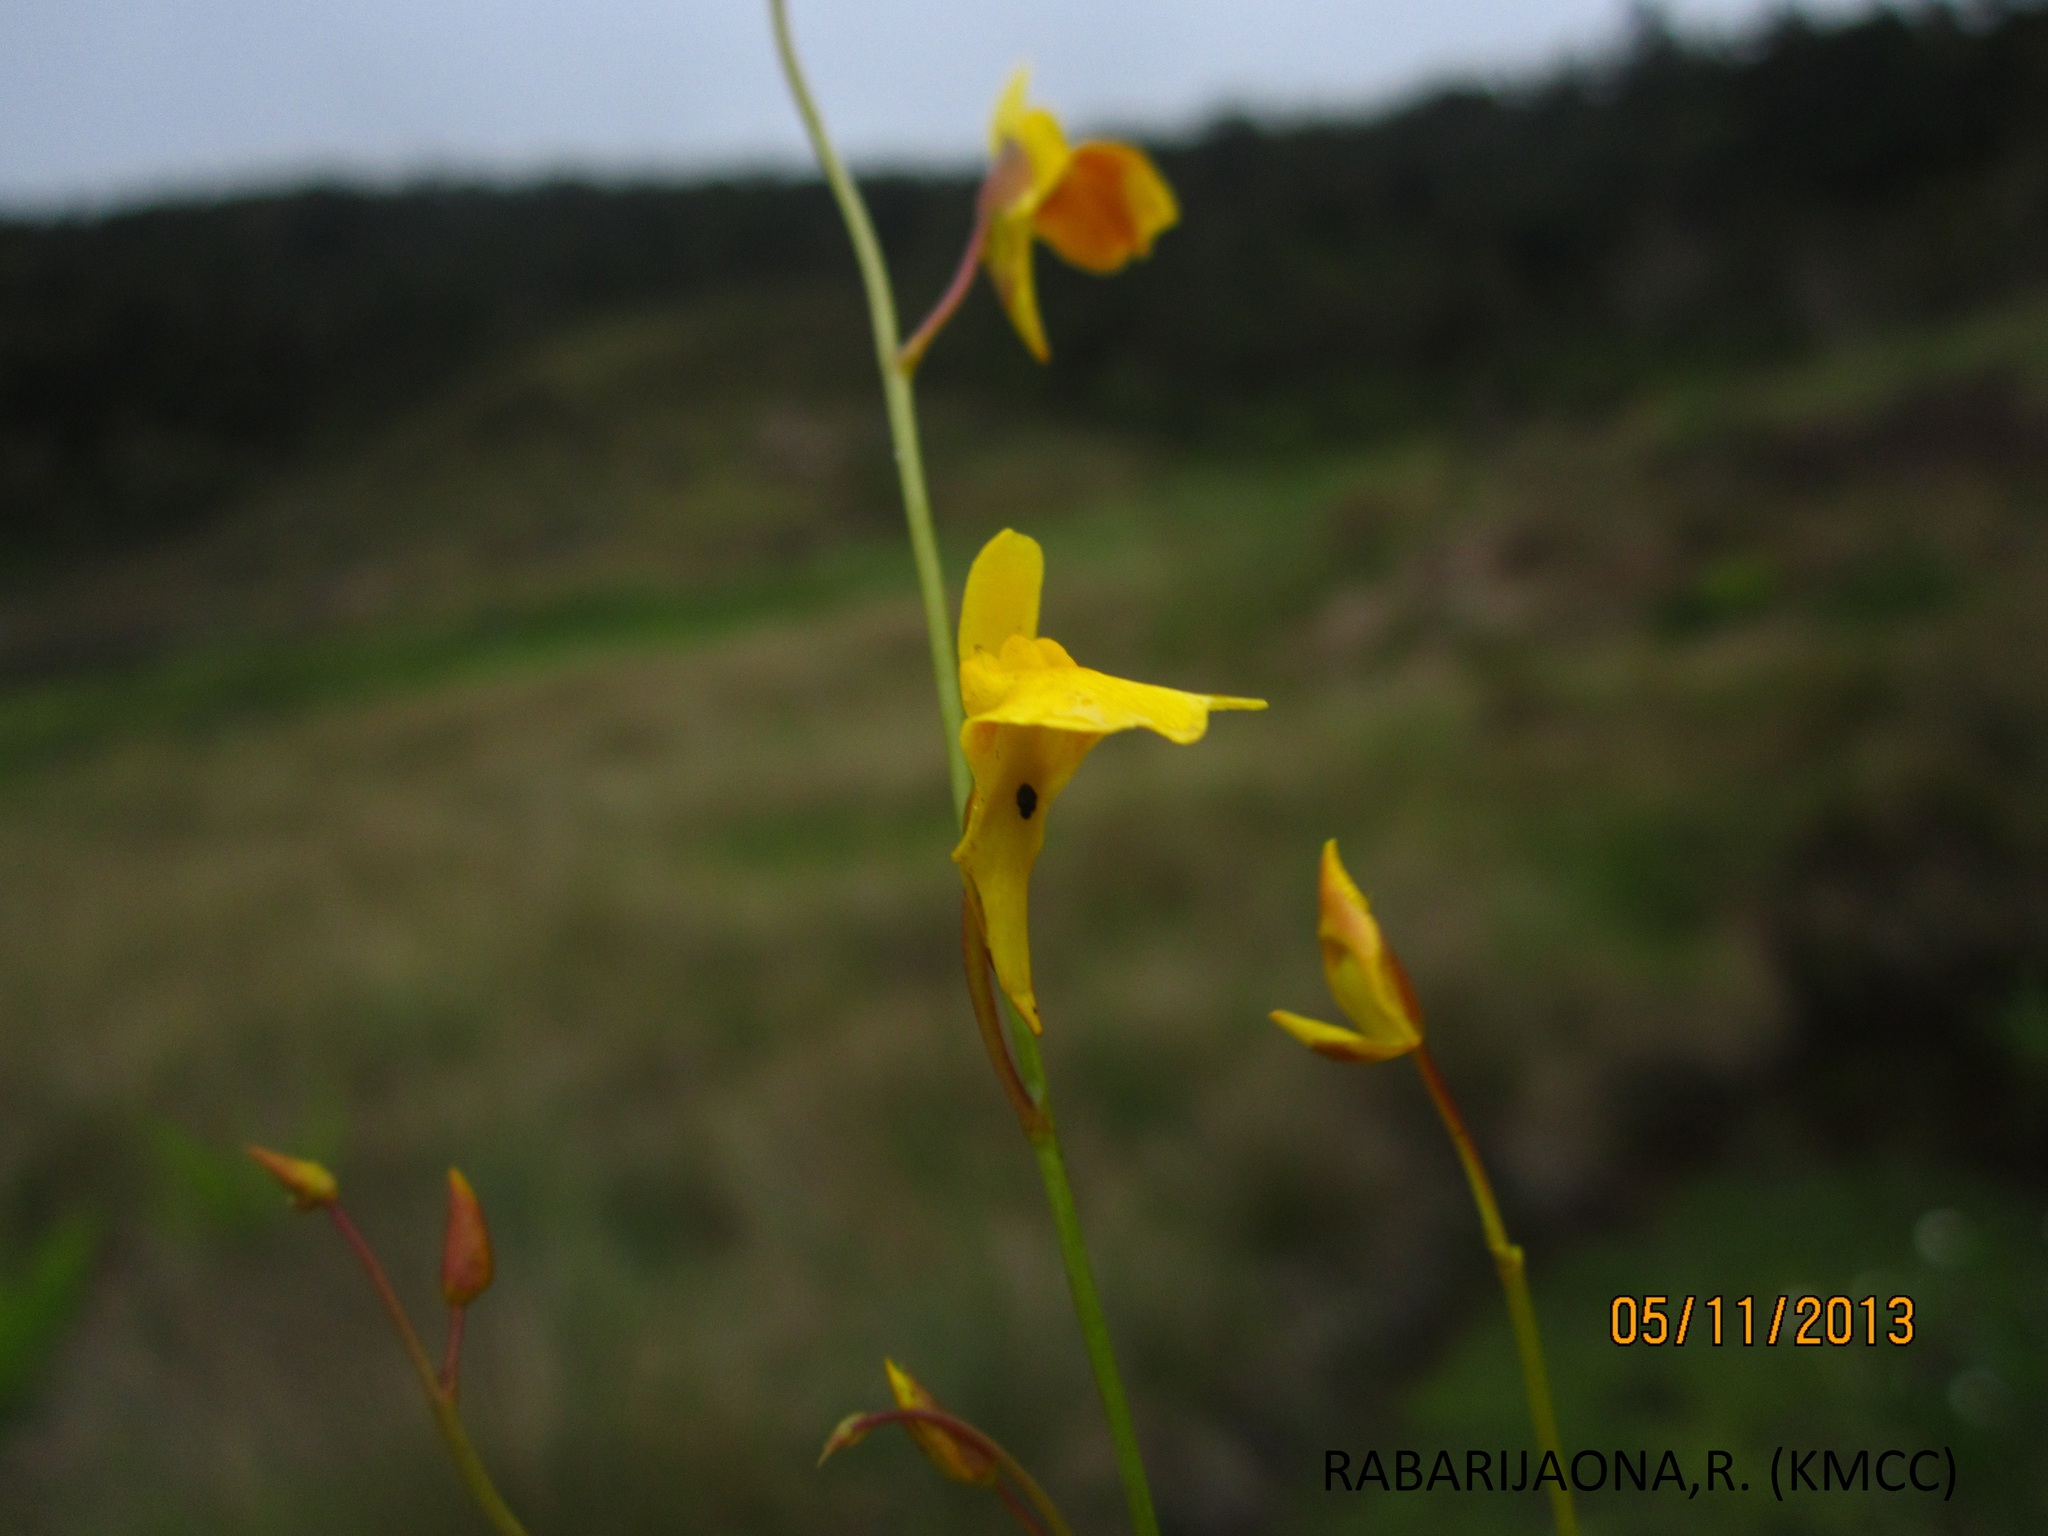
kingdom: Plantae
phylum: Tracheophyta
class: Magnoliopsida
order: Lamiales
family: Lentibulariaceae
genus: Utricularia
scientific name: Utricularia prehensilis
